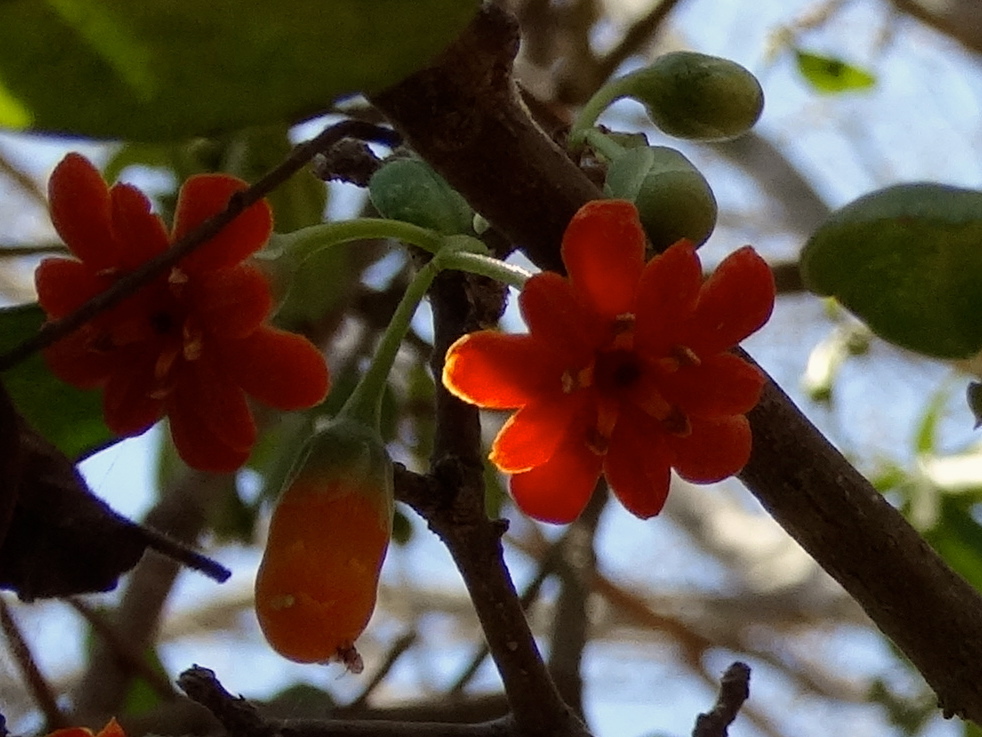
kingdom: Plantae
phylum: Tracheophyta
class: Magnoliopsida
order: Ericales
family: Primulaceae
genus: Bonellia
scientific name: Bonellia macrocarpa
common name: Primrose
